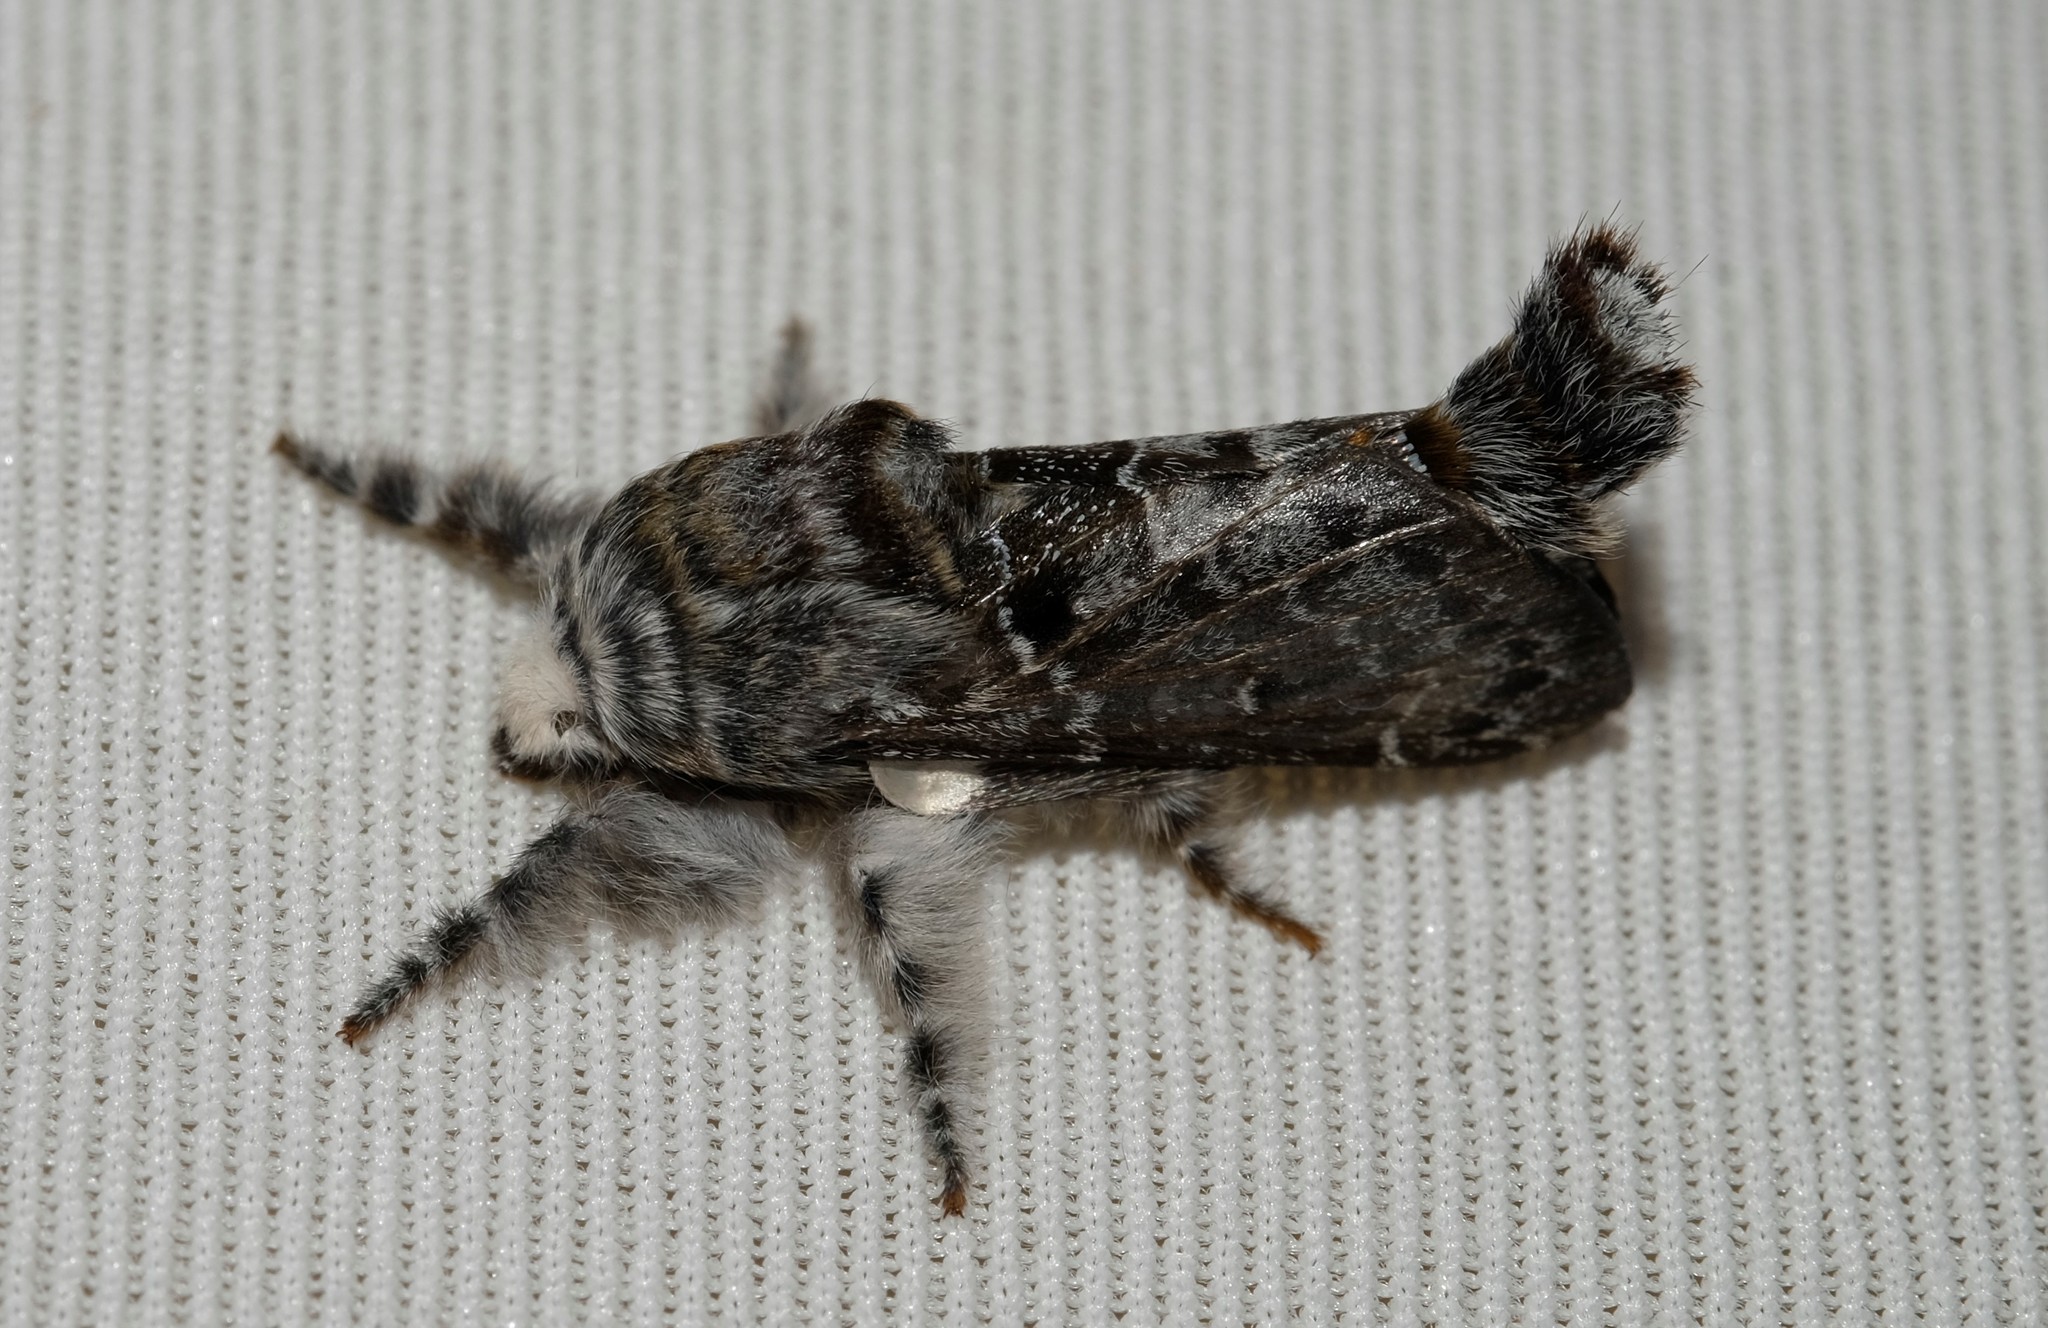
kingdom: Animalia
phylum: Arthropoda
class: Insecta
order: Lepidoptera
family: Lasiocampidae
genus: Genduara
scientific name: Genduara subnotata
